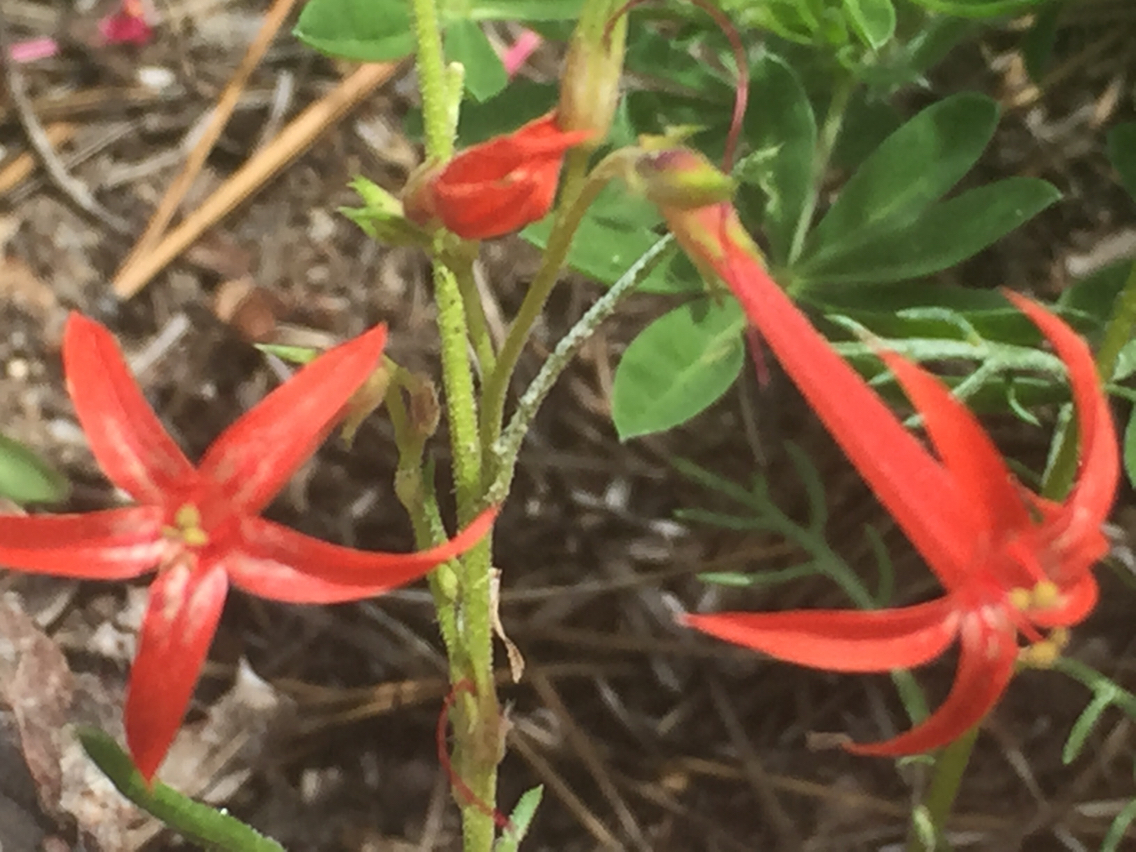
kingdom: Plantae
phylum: Tracheophyta
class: Magnoliopsida
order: Ericales
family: Polemoniaceae
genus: Ipomopsis
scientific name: Ipomopsis aggregata
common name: Scarlet gilia
